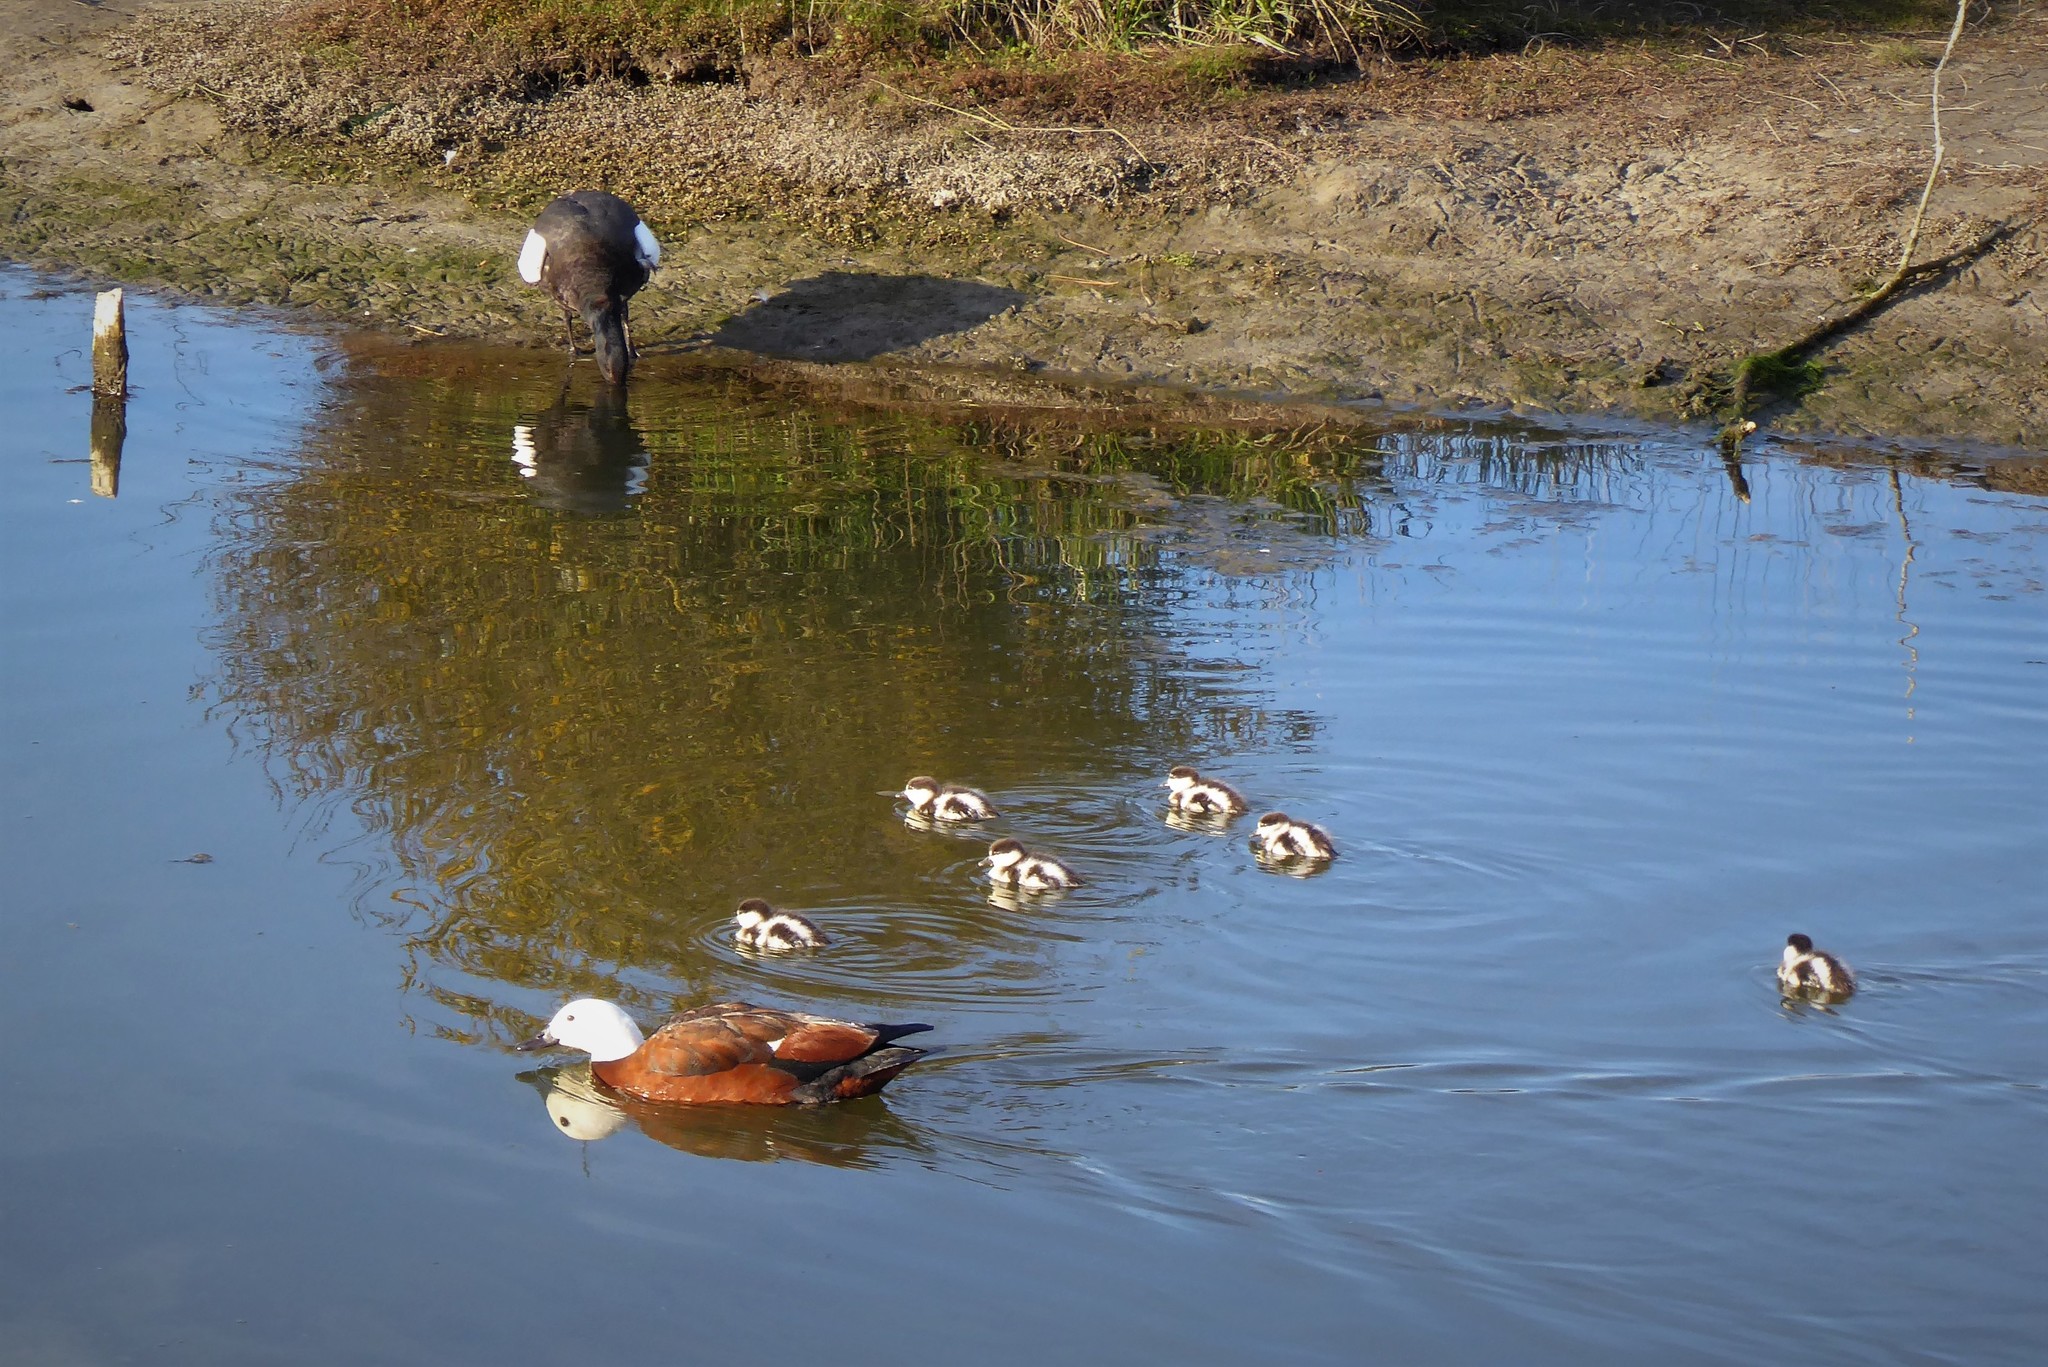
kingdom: Animalia
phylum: Chordata
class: Aves
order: Anseriformes
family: Anatidae
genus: Tadorna
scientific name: Tadorna variegata
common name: Paradise shelduck
